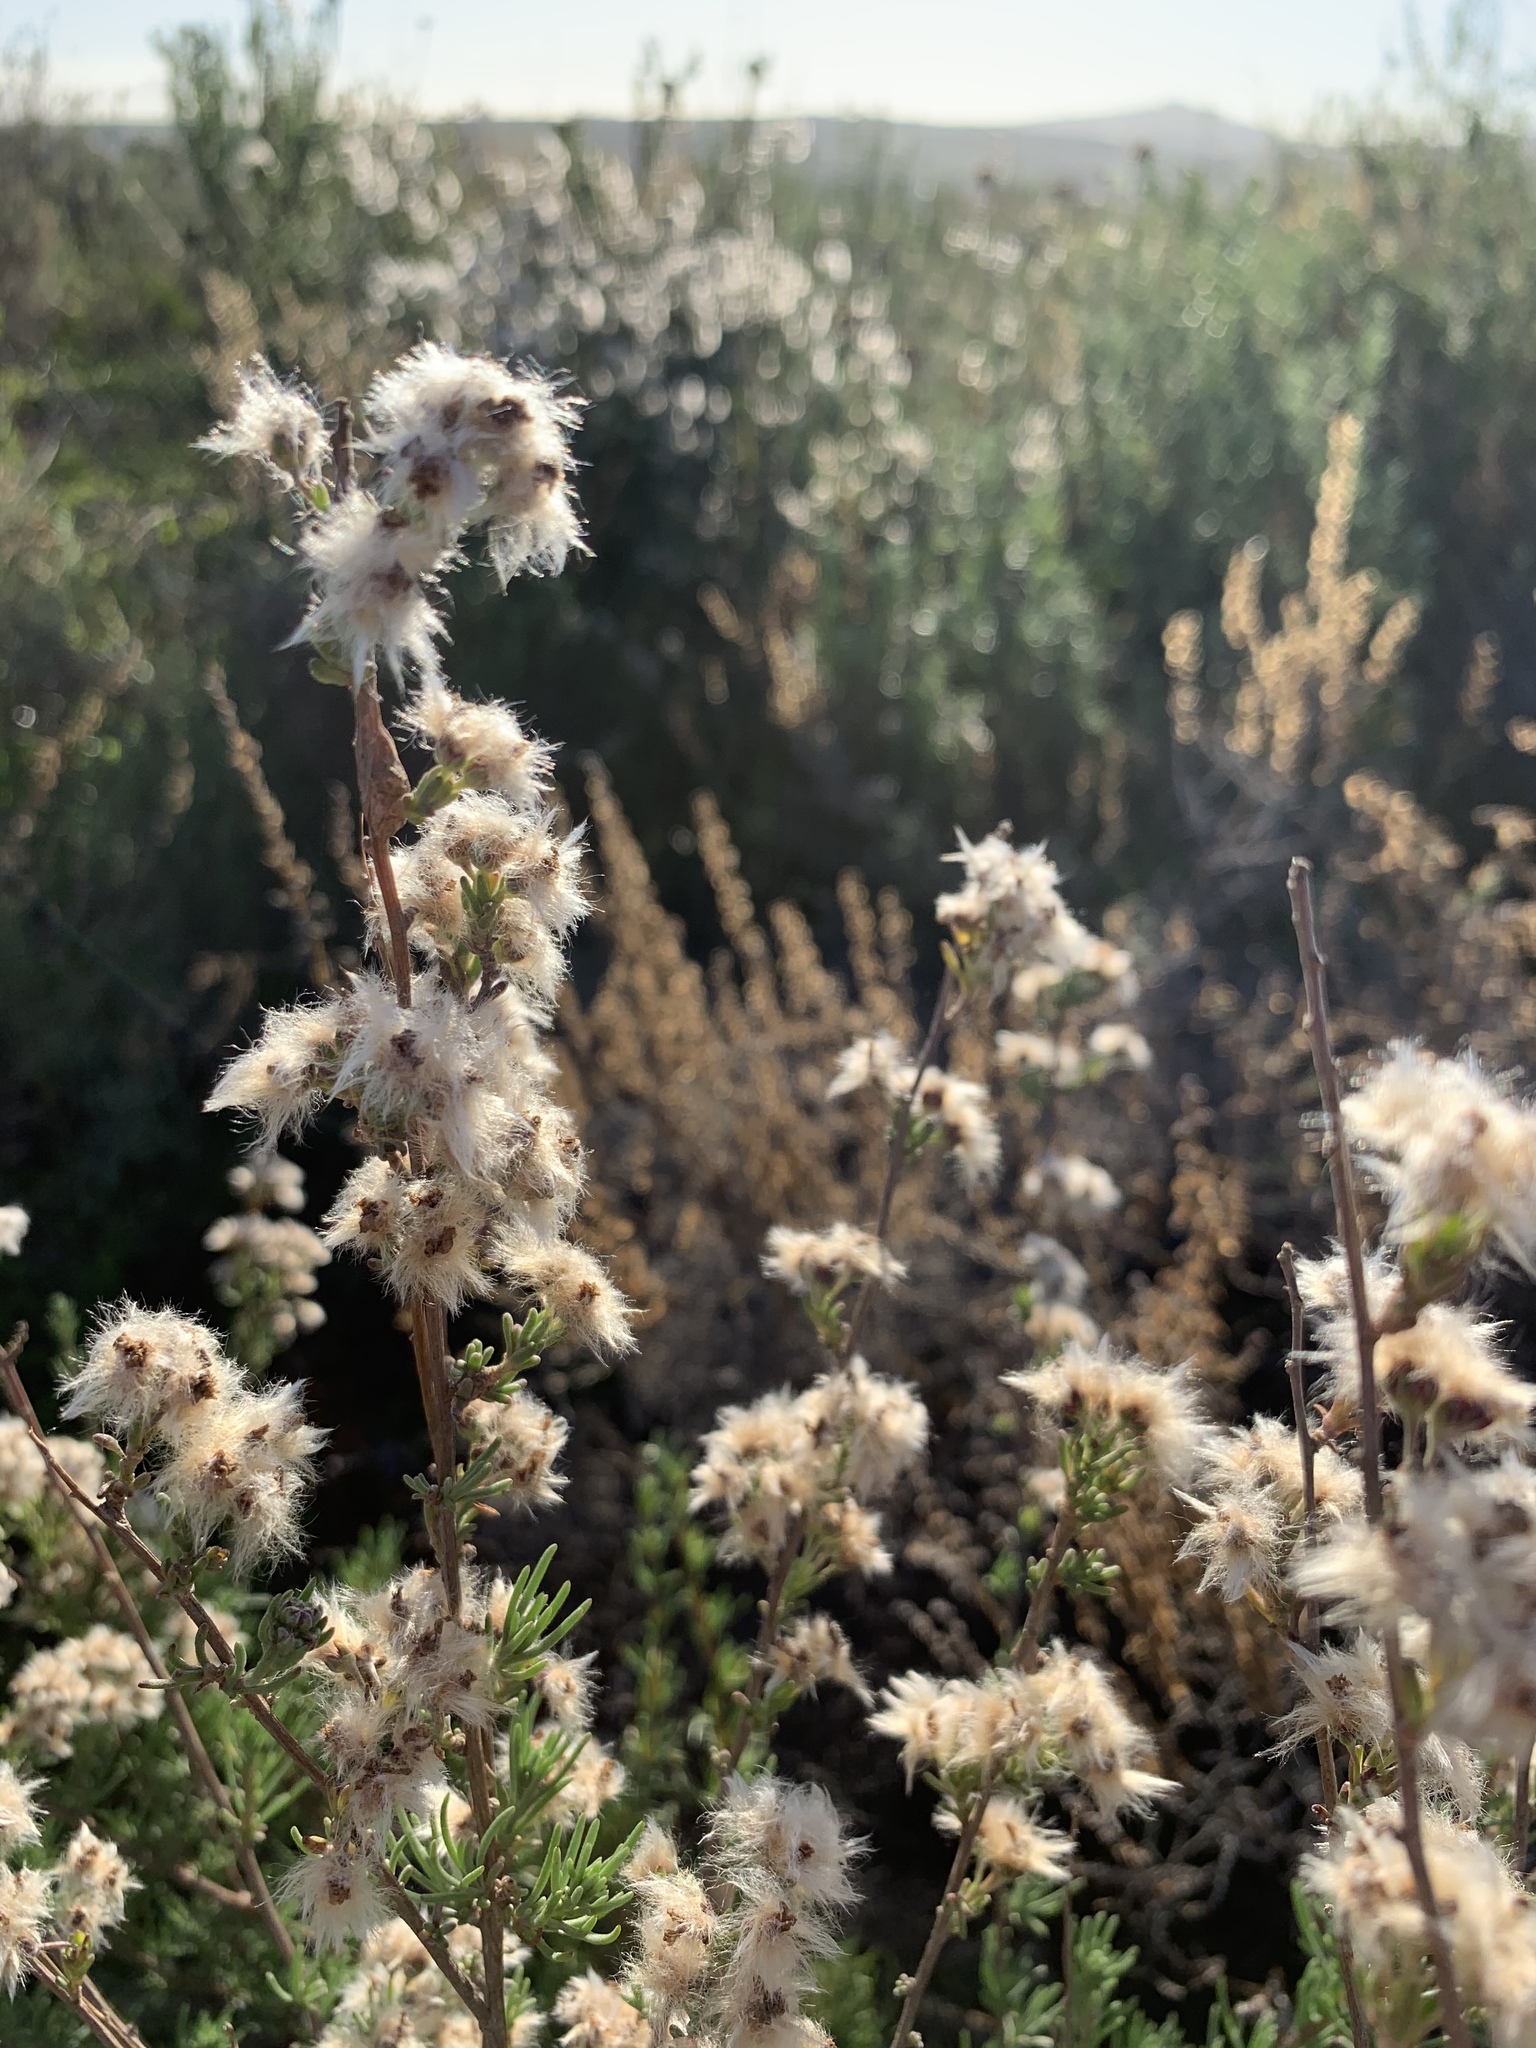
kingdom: Plantae
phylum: Tracheophyta
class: Magnoliopsida
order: Asterales
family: Asteraceae
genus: Eriocephalus
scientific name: Eriocephalus africanus
